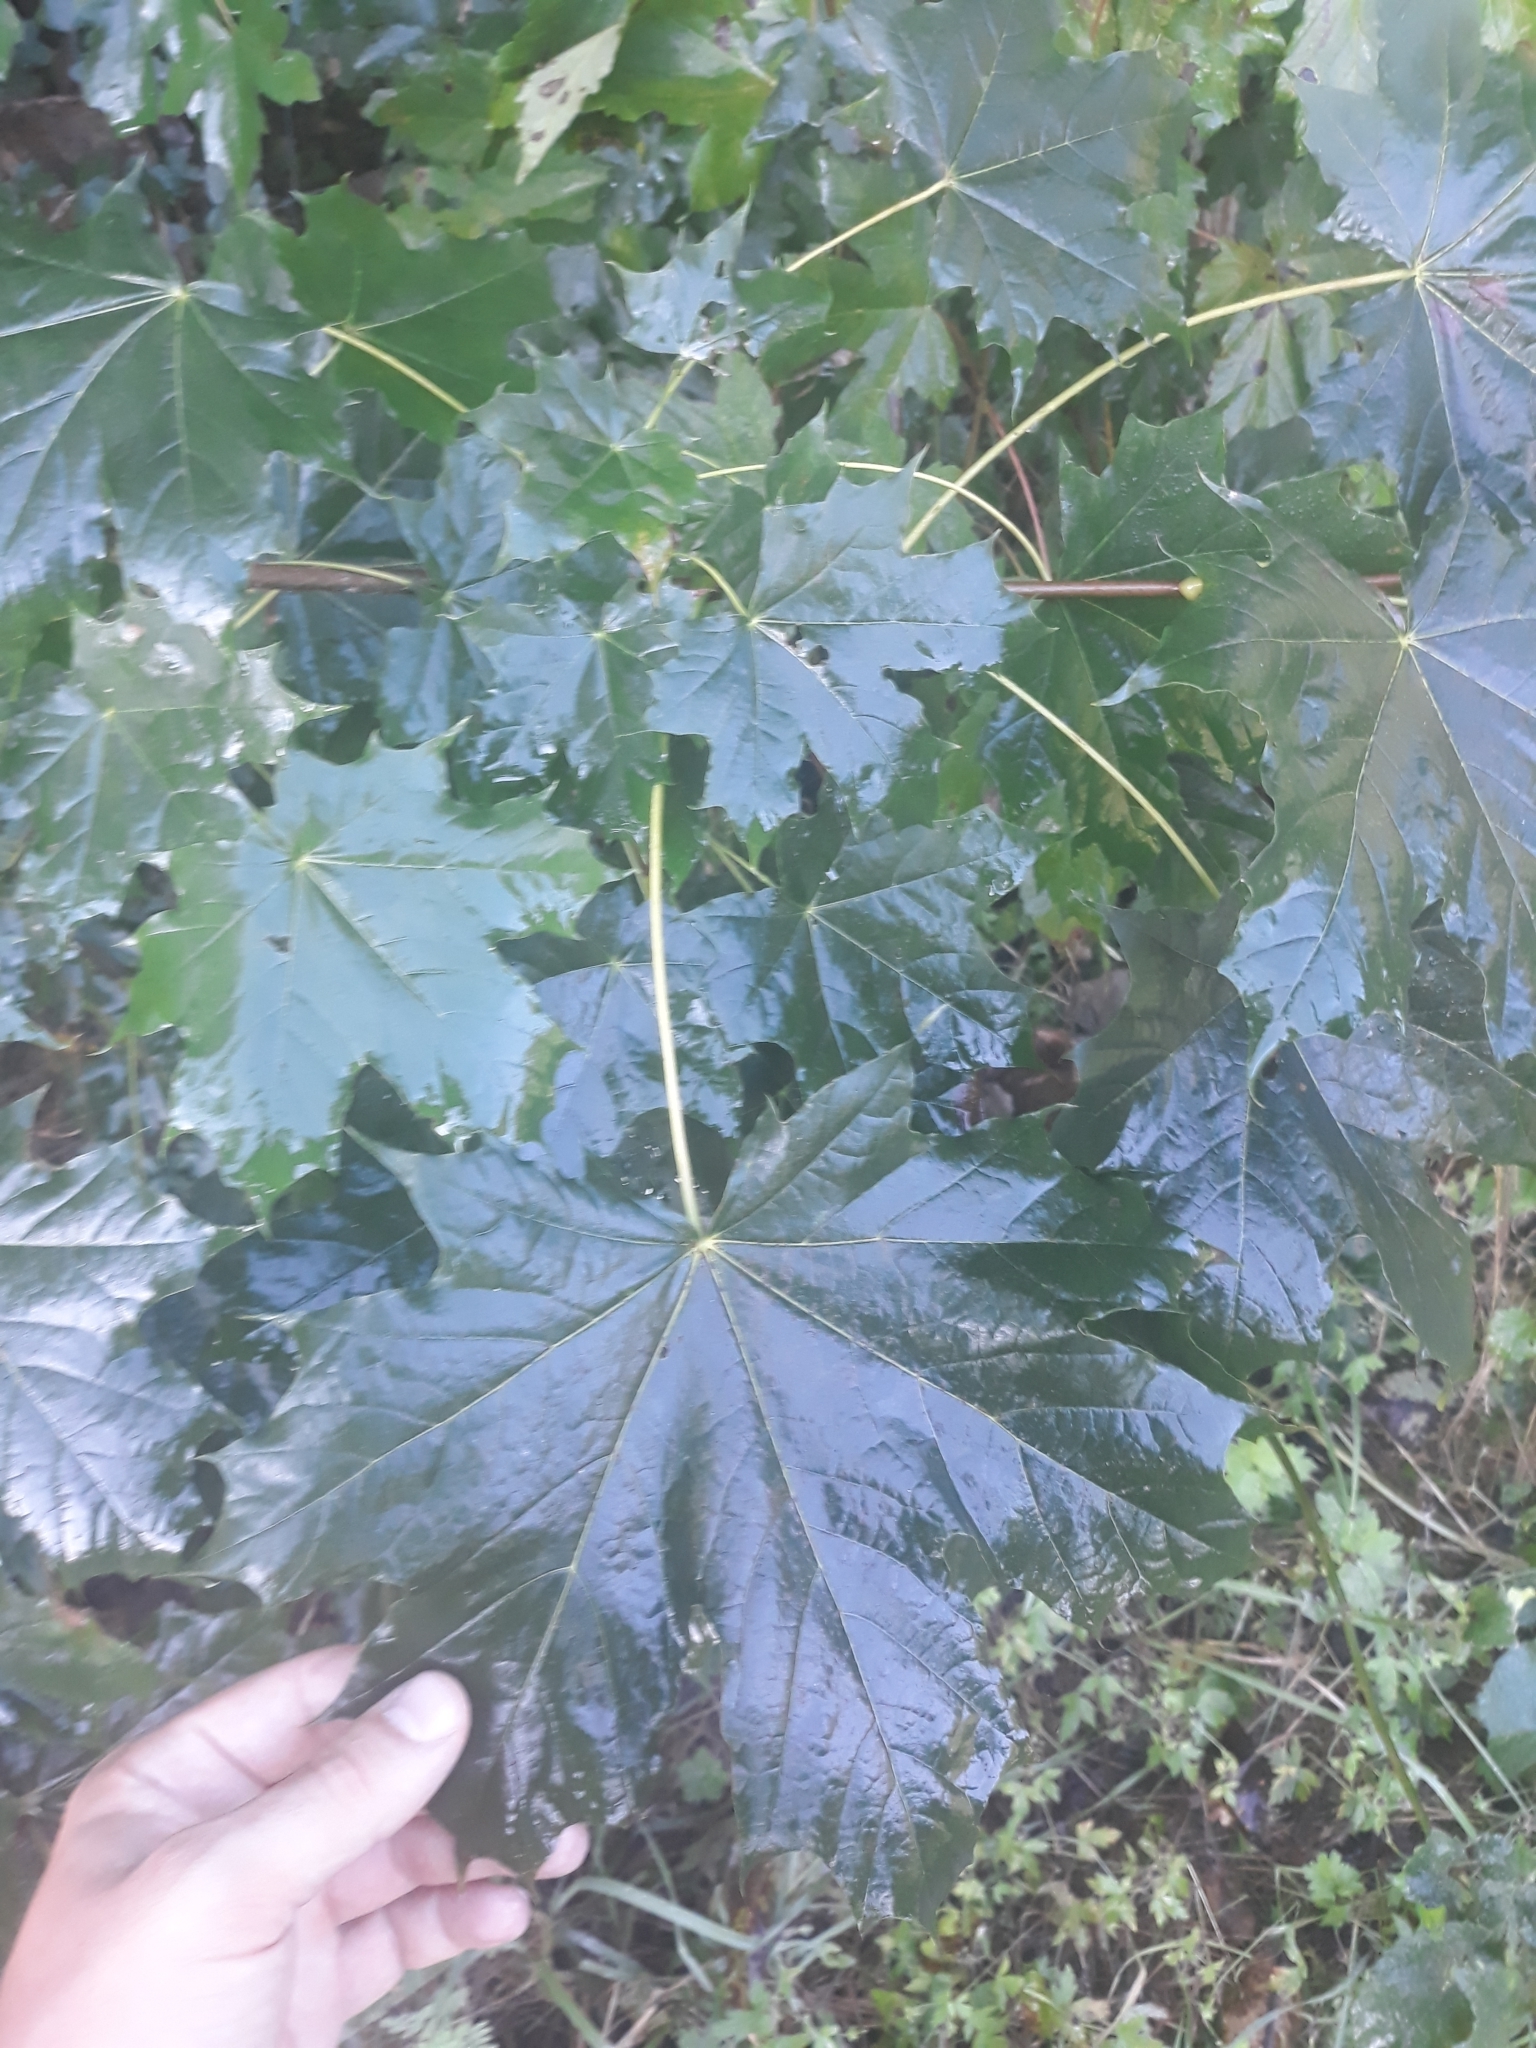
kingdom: Plantae
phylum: Tracheophyta
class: Magnoliopsida
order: Sapindales
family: Sapindaceae
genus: Acer
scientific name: Acer platanoides
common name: Norway maple
